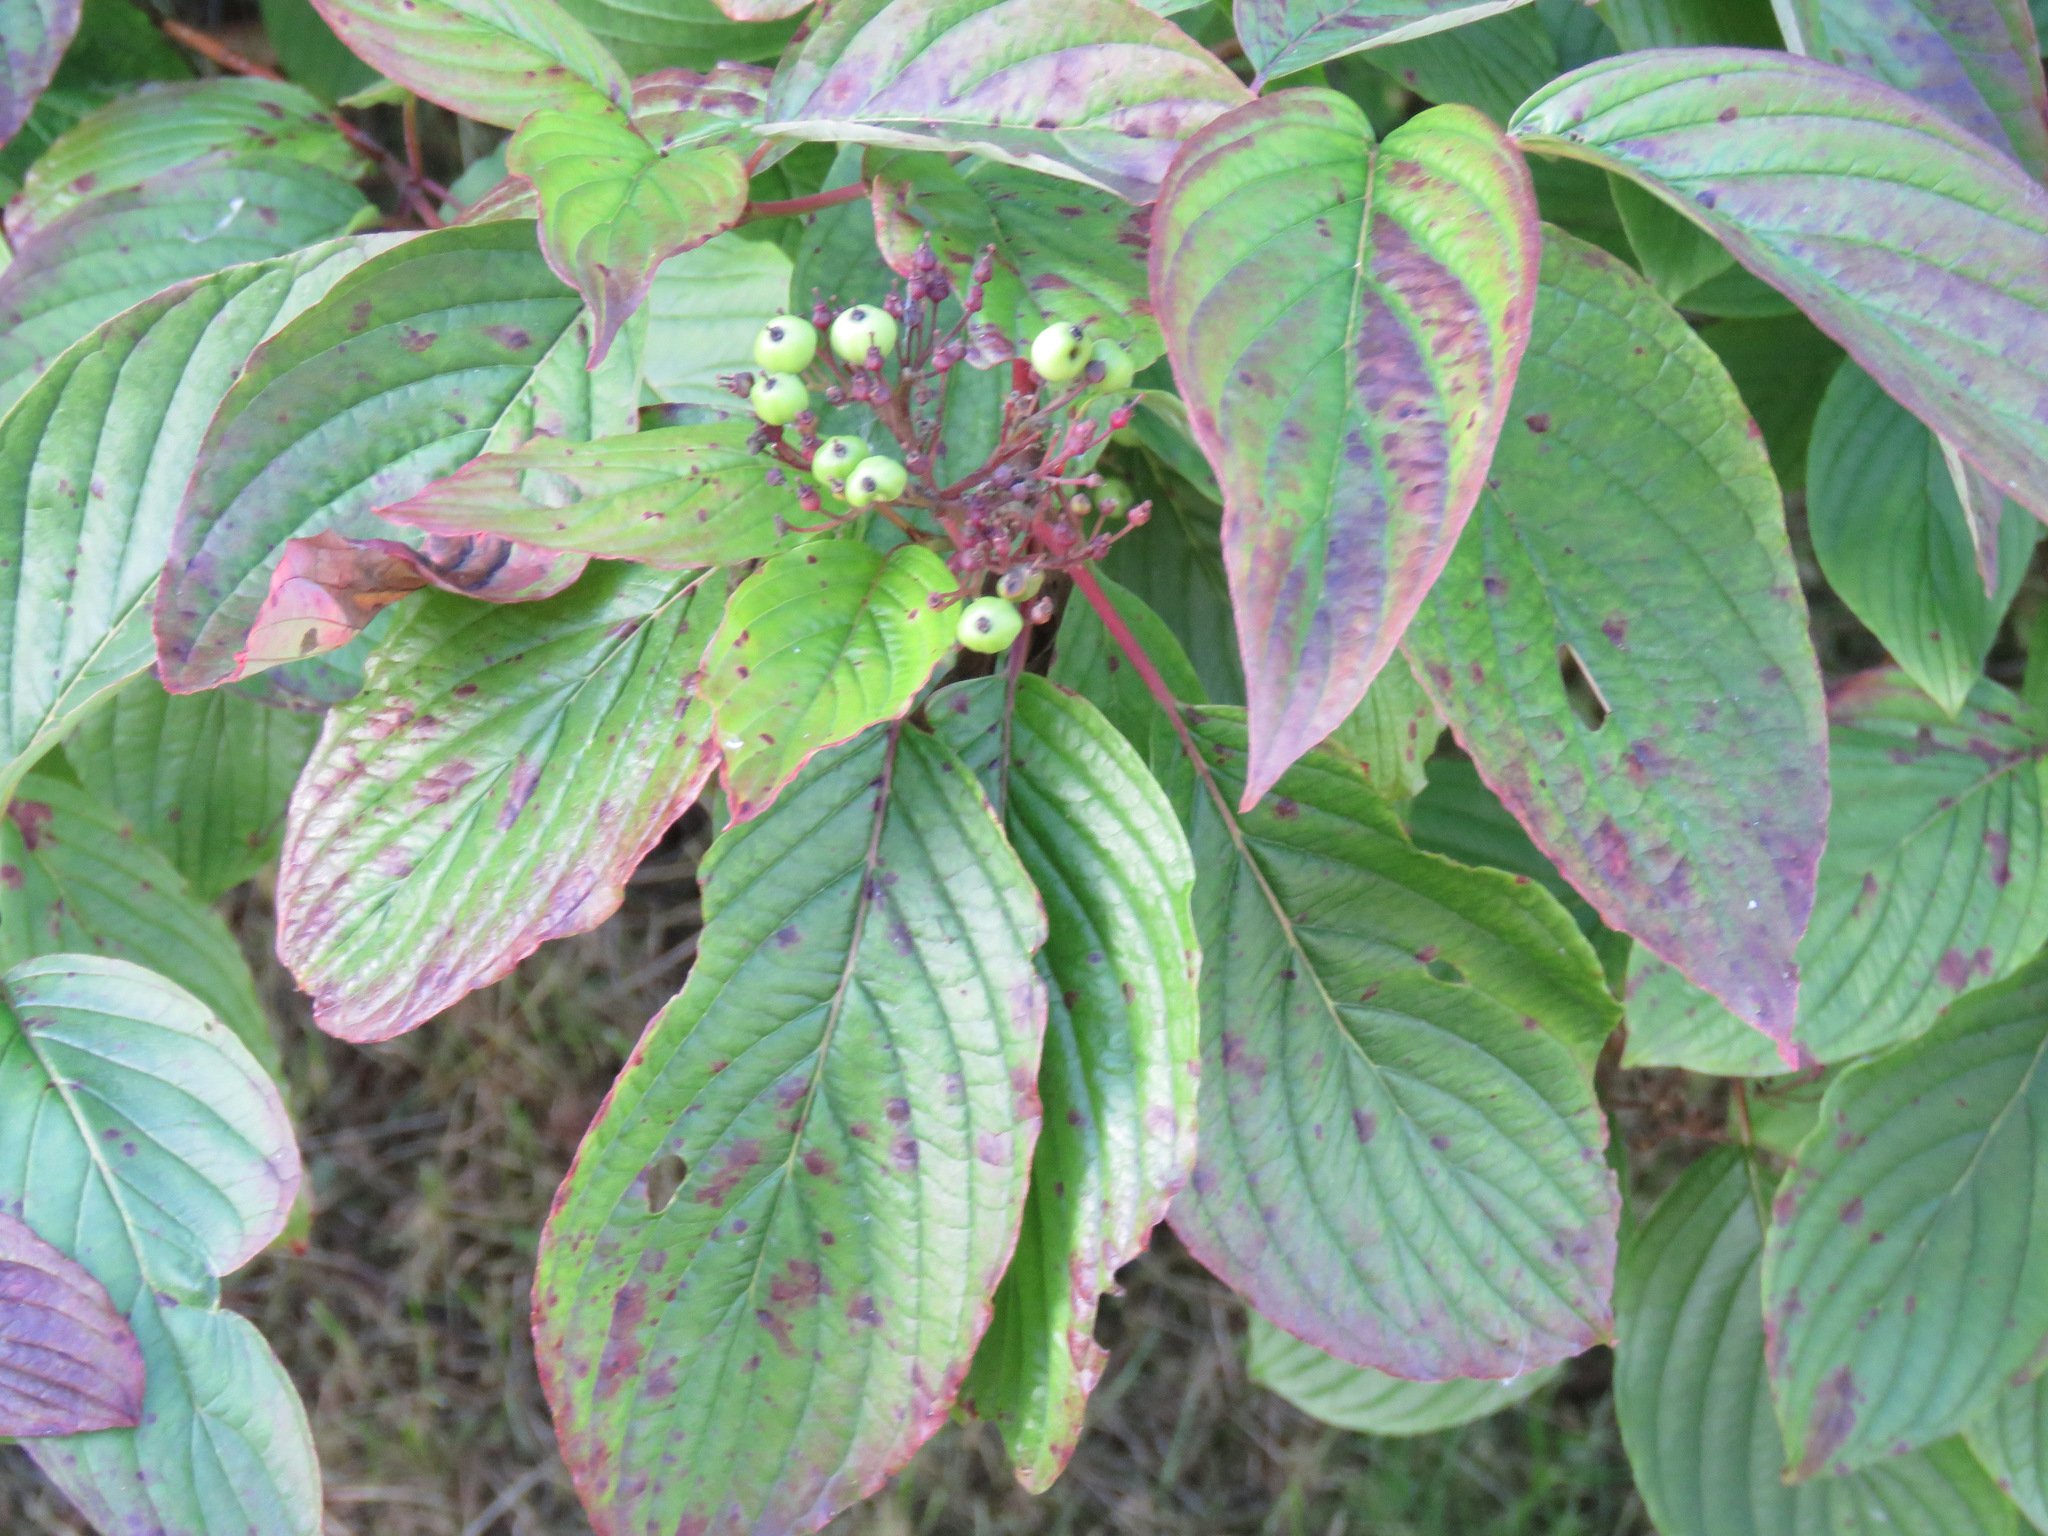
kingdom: Plantae
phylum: Tracheophyta
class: Magnoliopsida
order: Cornales
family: Cornaceae
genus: Cornus
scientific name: Cornus sericea
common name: Red-osier dogwood
